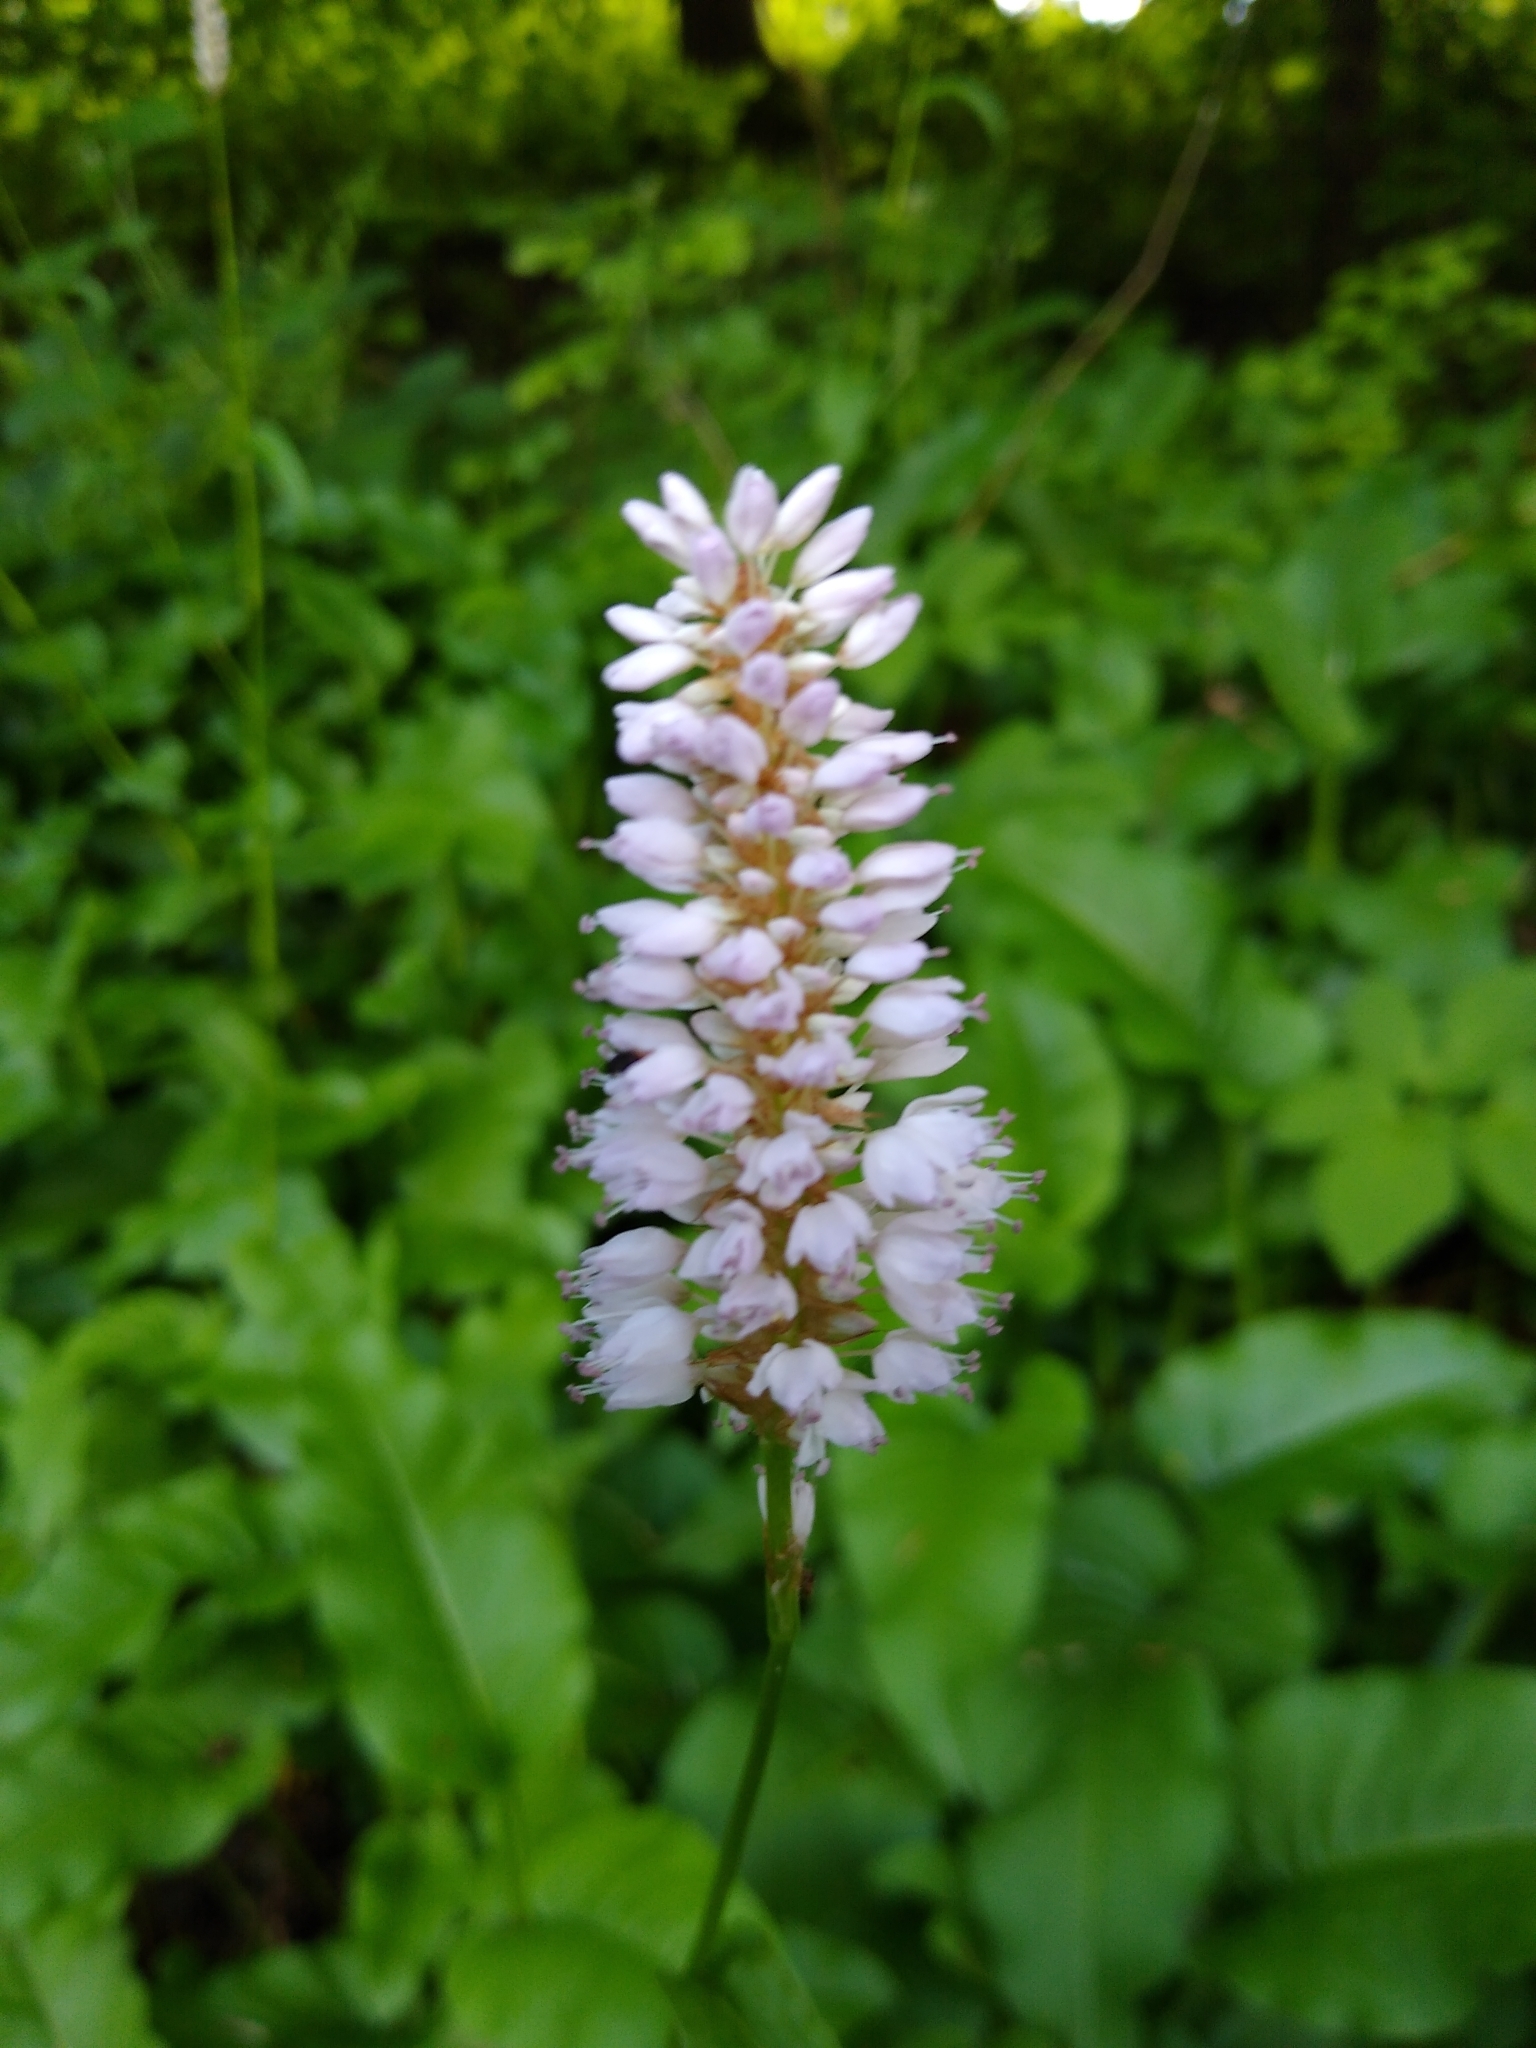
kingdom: Plantae
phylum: Tracheophyta
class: Magnoliopsida
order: Caryophyllales
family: Polygonaceae
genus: Bistorta
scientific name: Bistorta officinalis
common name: Common bistort
